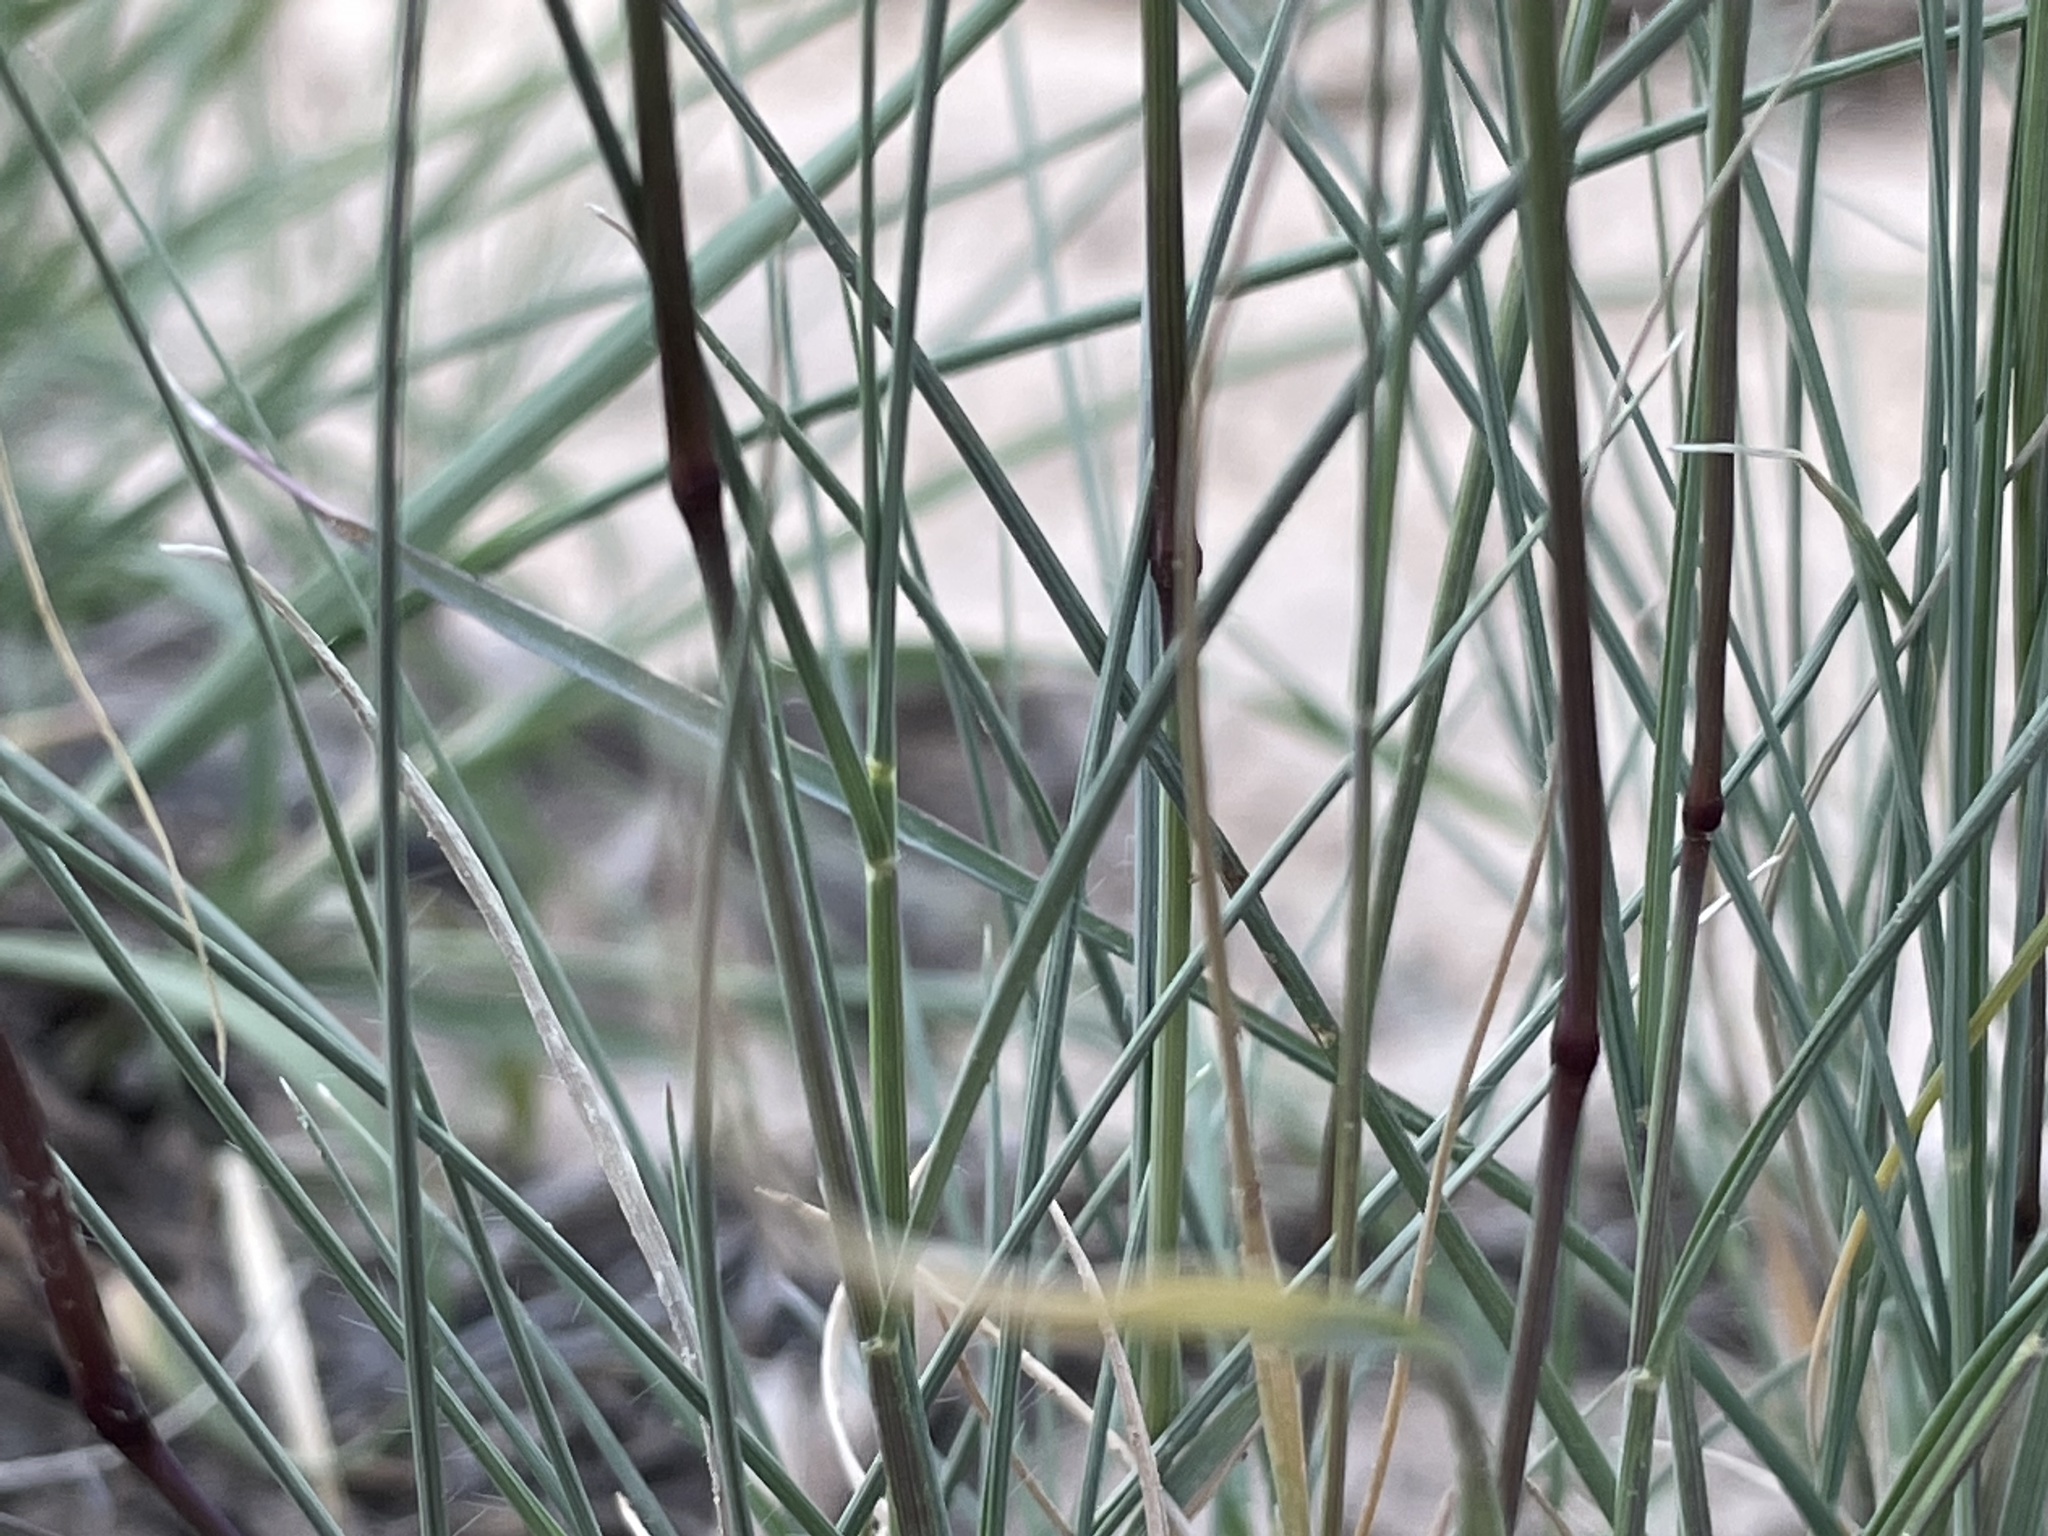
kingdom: Plantae
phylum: Tracheophyta
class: Liliopsida
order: Poales
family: Poaceae
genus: Bouteloua
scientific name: Bouteloua gracilis
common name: Blue grama
